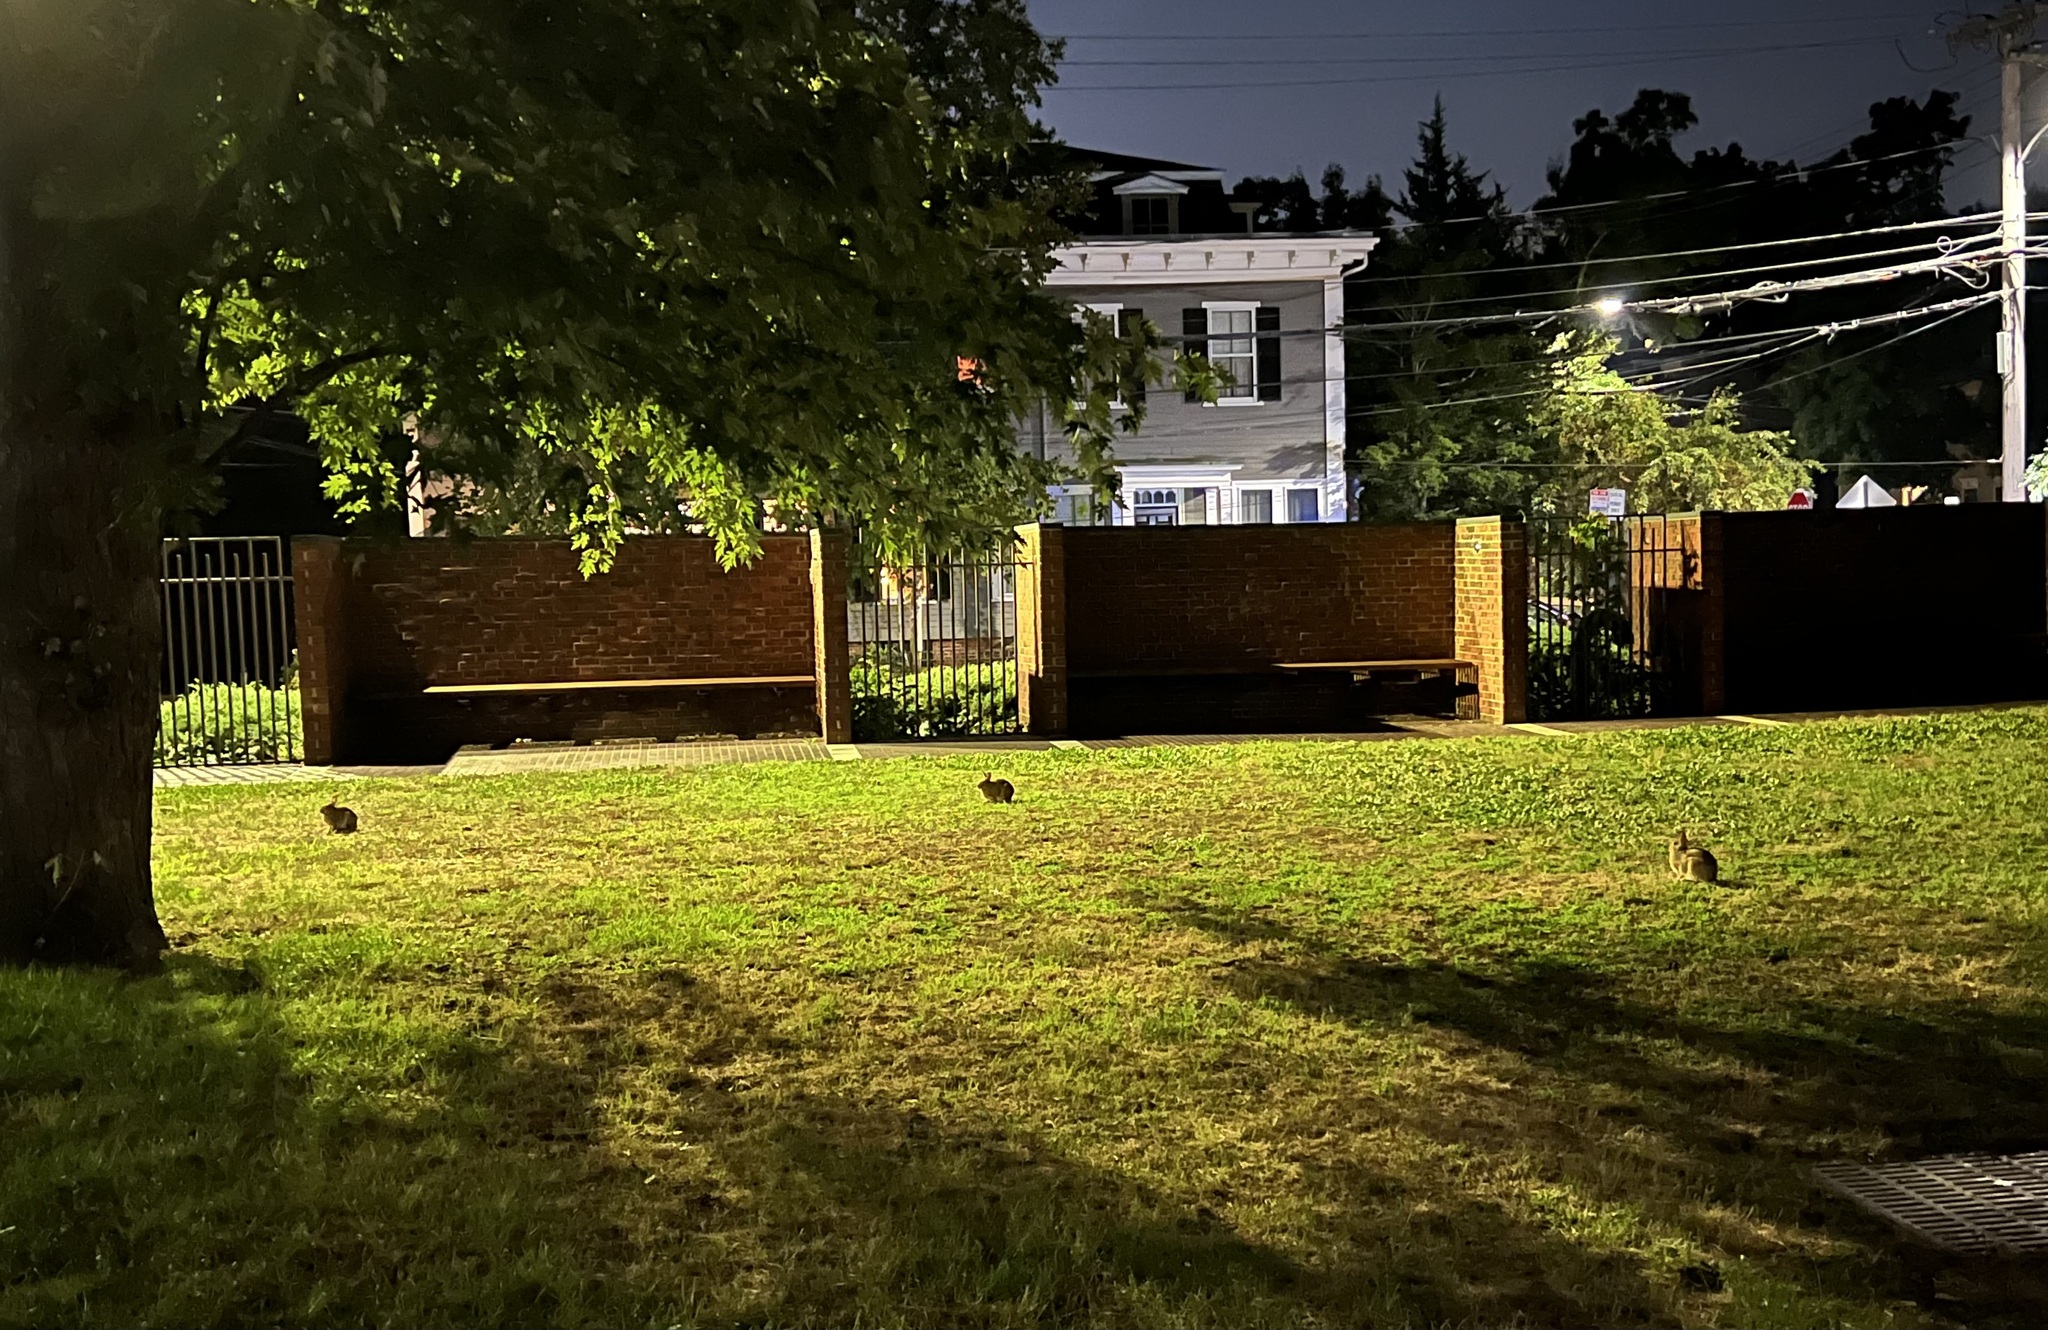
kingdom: Animalia
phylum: Chordata
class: Mammalia
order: Lagomorpha
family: Leporidae
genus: Sylvilagus
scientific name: Sylvilagus floridanus
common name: Eastern cottontail
